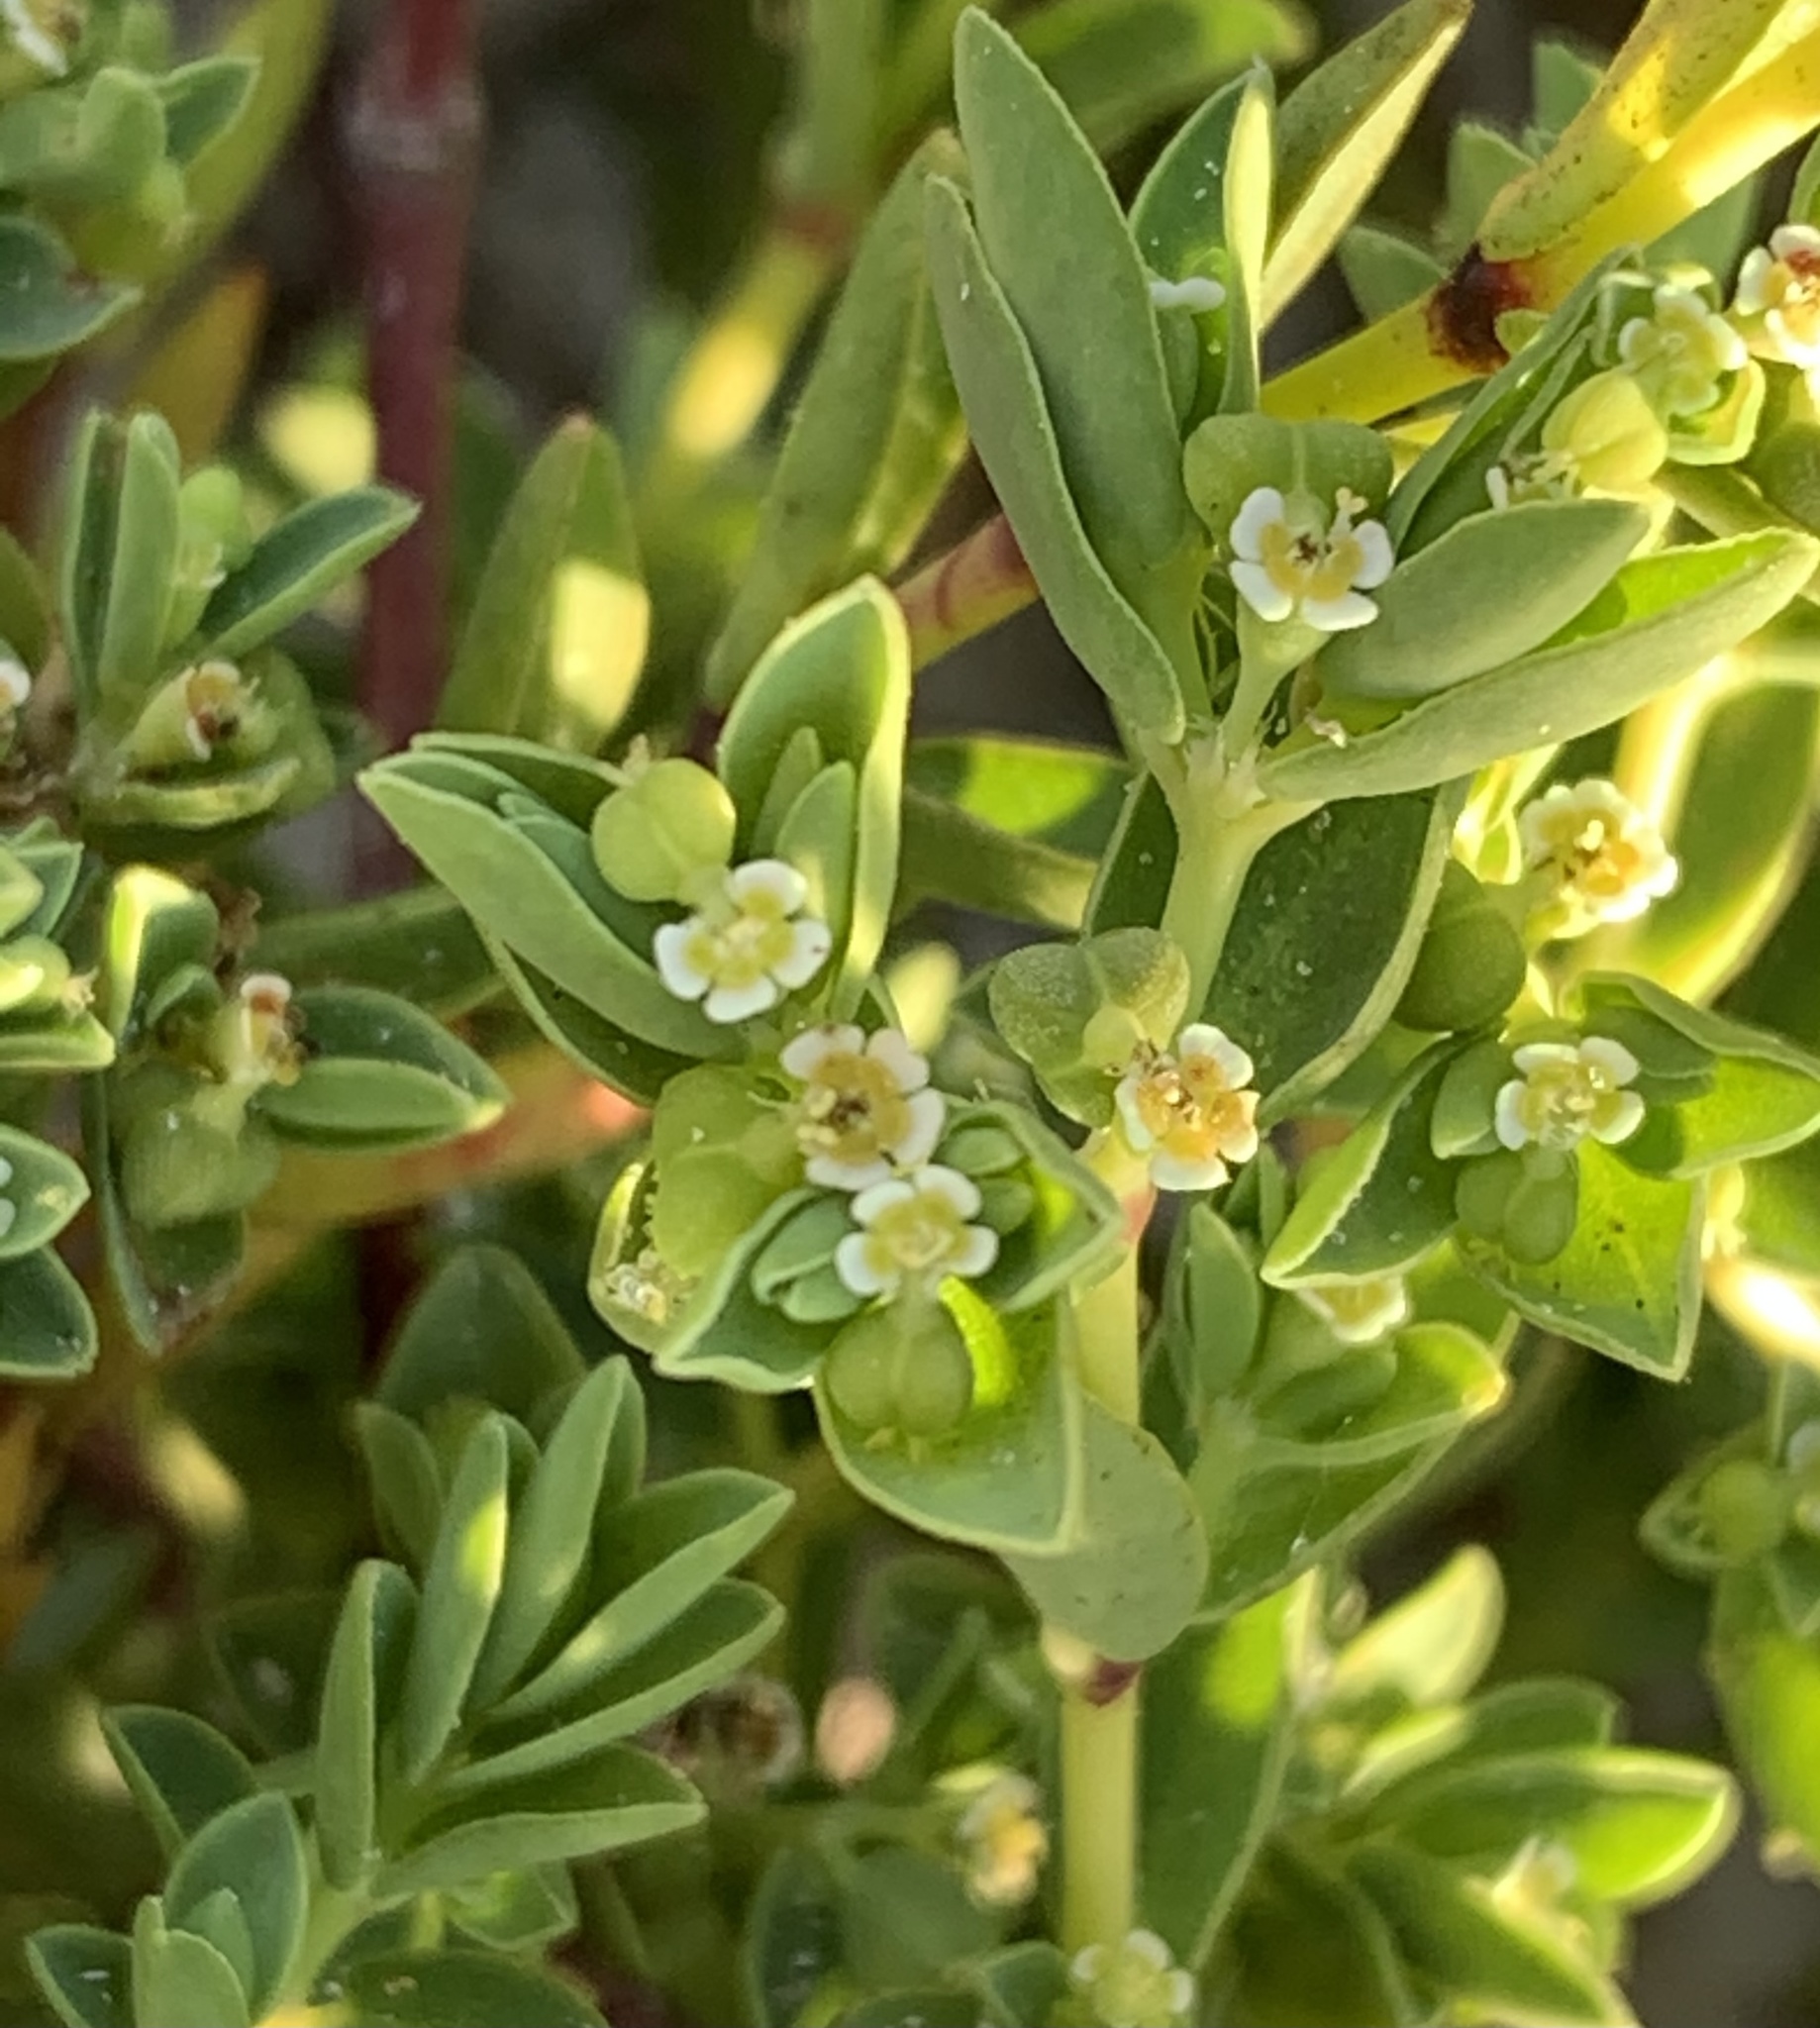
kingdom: Plantae
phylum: Tracheophyta
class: Magnoliopsida
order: Malpighiales
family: Euphorbiaceae
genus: Euphorbia
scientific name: Euphorbia mesembryanthemifolia
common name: Coastal beach sandmat
